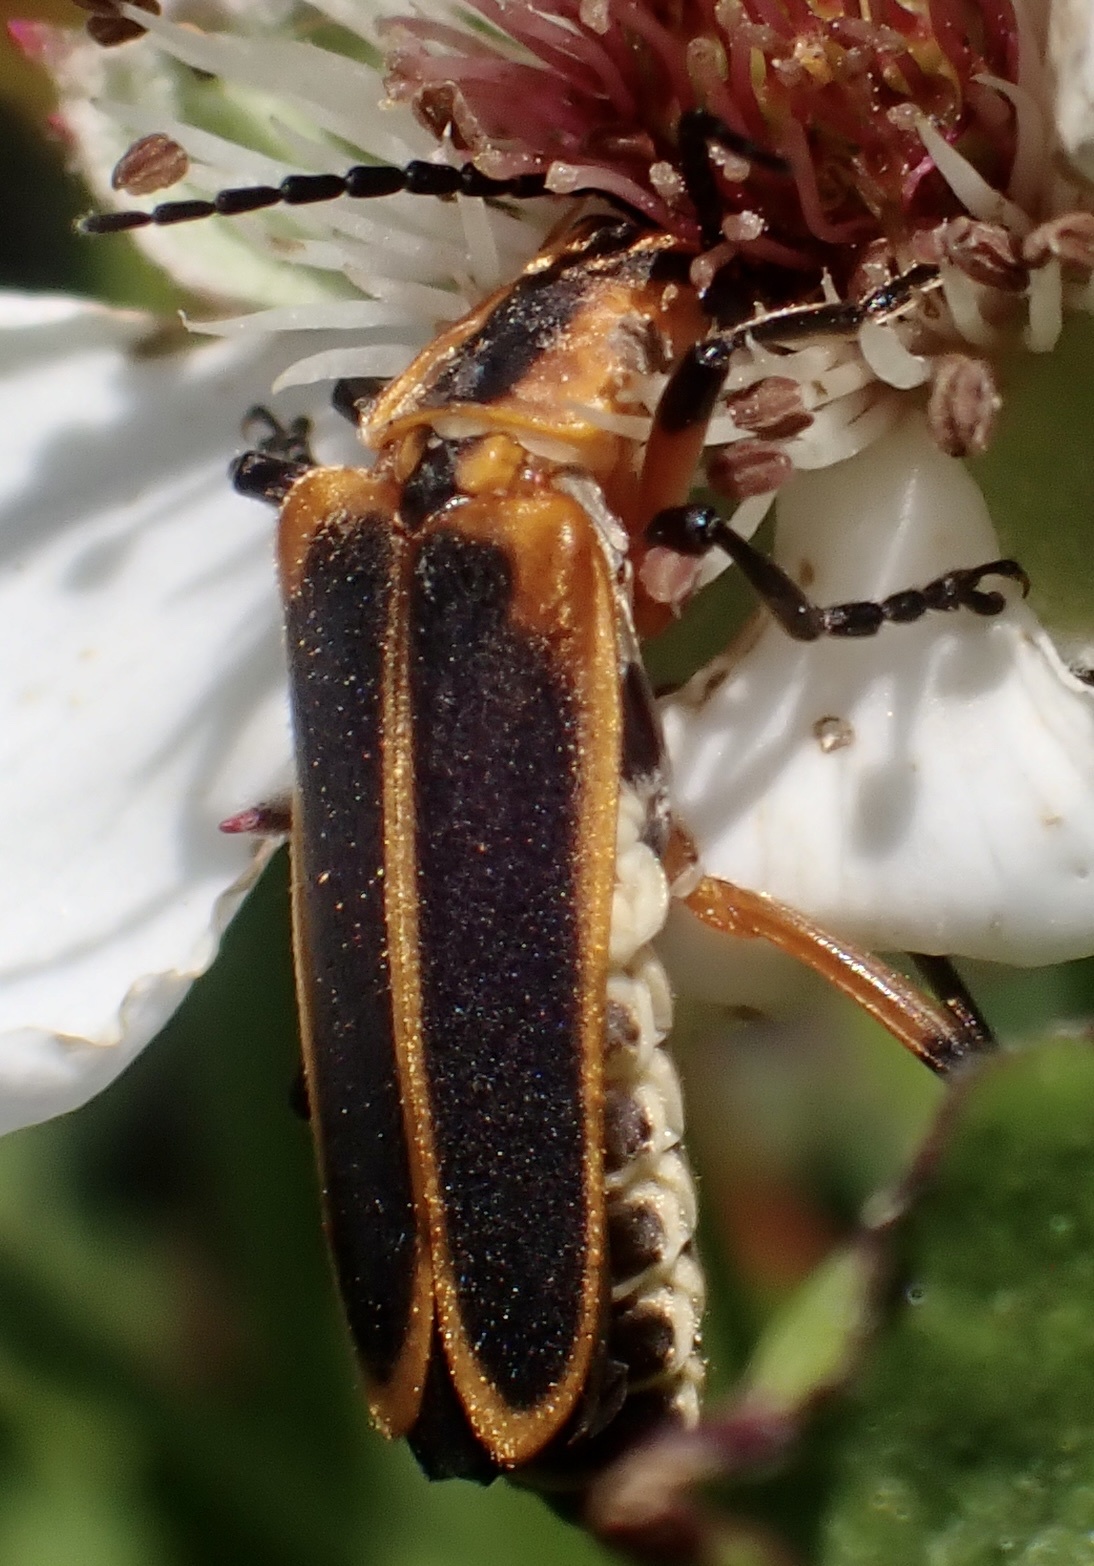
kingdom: Animalia
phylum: Arthropoda
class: Insecta
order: Coleoptera
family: Cantharidae
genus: Chauliognathus
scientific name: Chauliognathus marginatus
